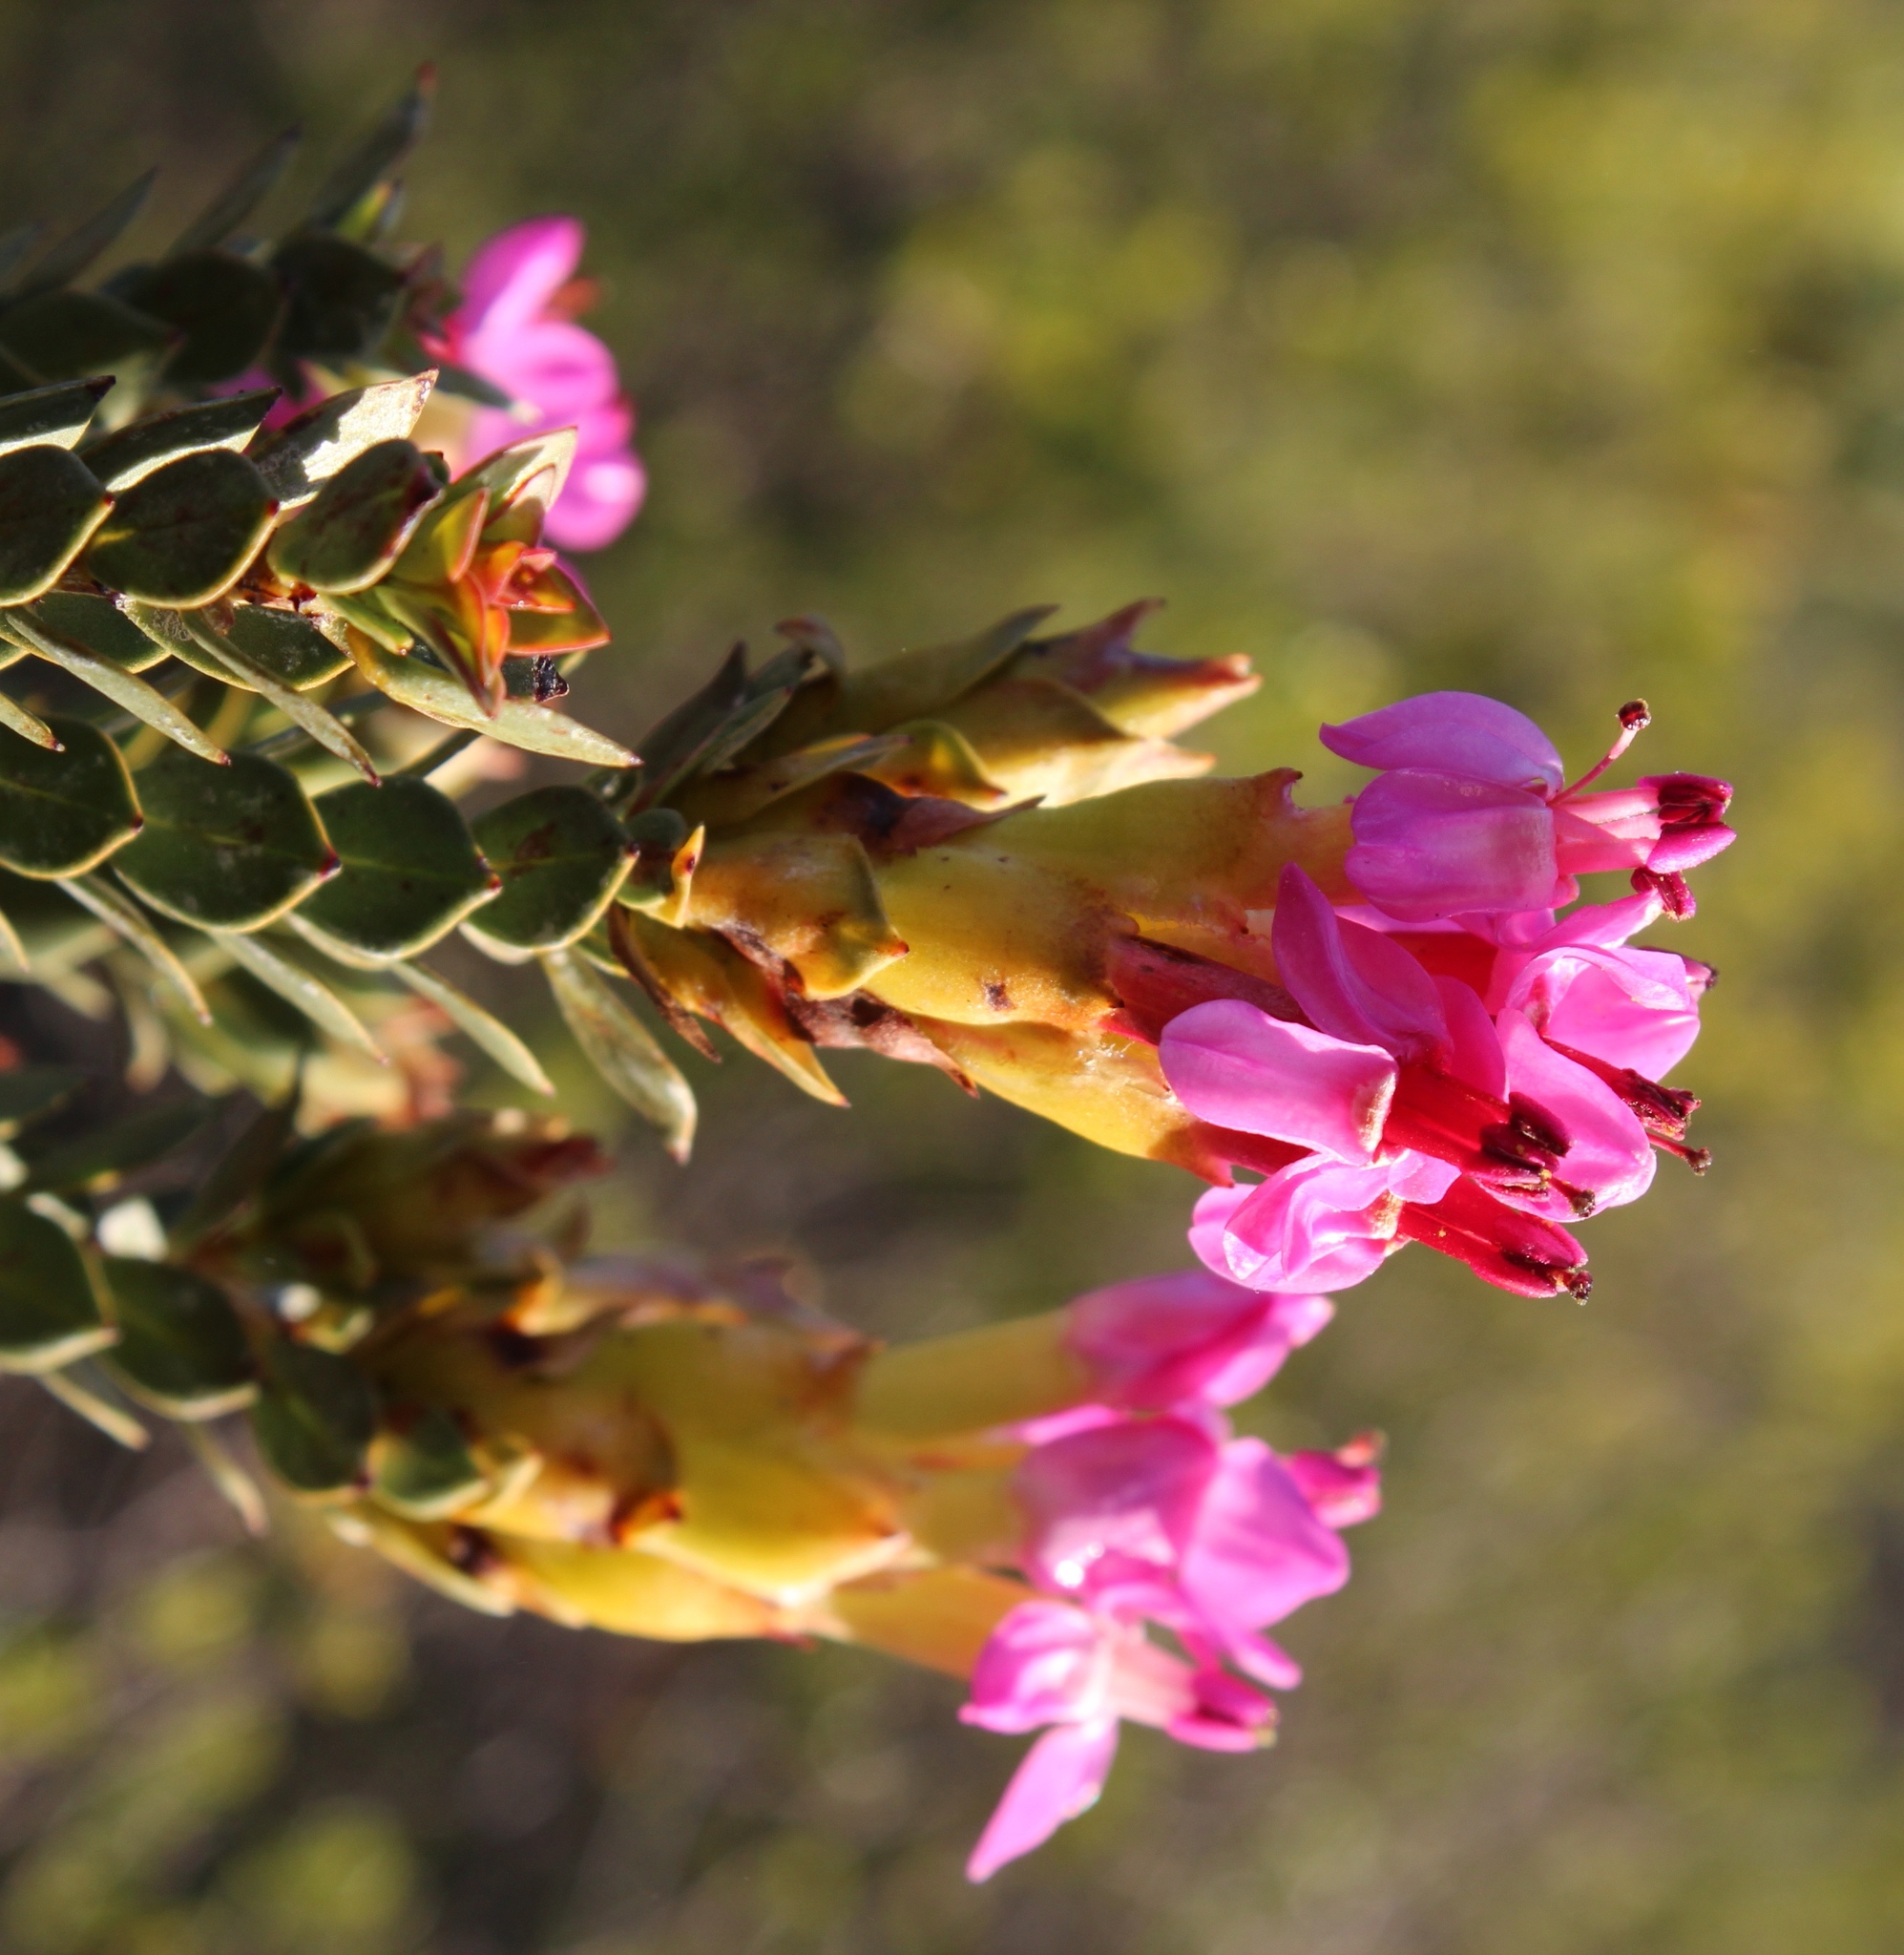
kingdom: Plantae
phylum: Tracheophyta
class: Magnoliopsida
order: Myrtales
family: Penaeaceae
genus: Saltera
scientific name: Saltera sarcocolla
